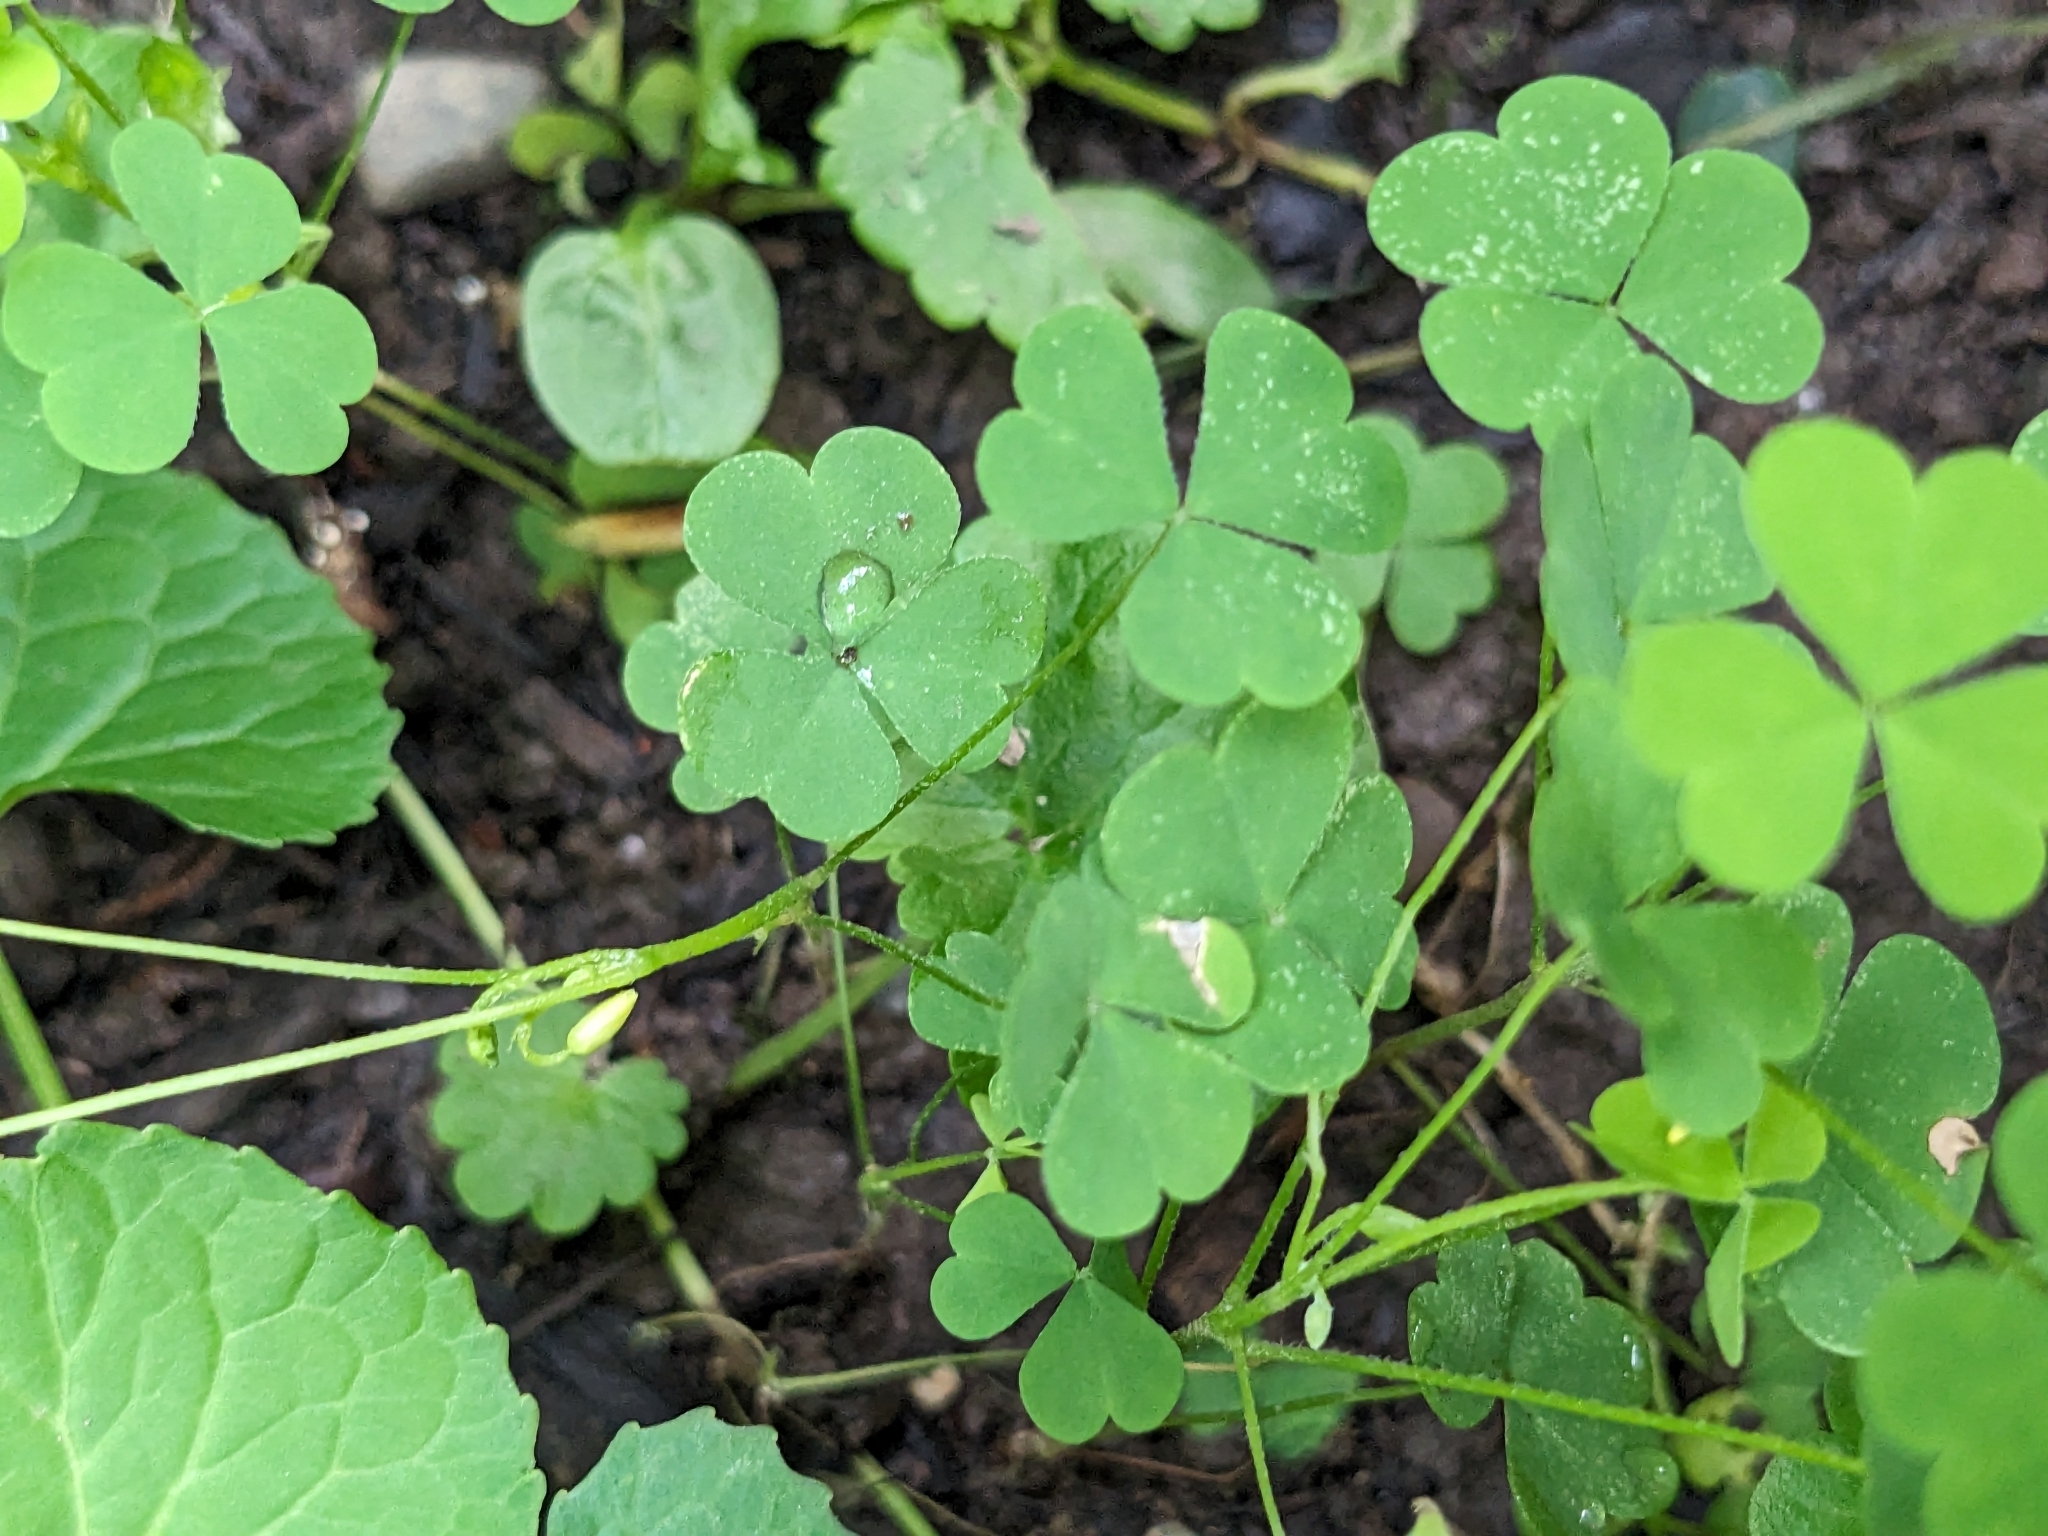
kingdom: Plantae
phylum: Tracheophyta
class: Magnoliopsida
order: Oxalidales
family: Oxalidaceae
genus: Oxalis
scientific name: Oxalis dillenii
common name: Sussex yellow-sorrel
